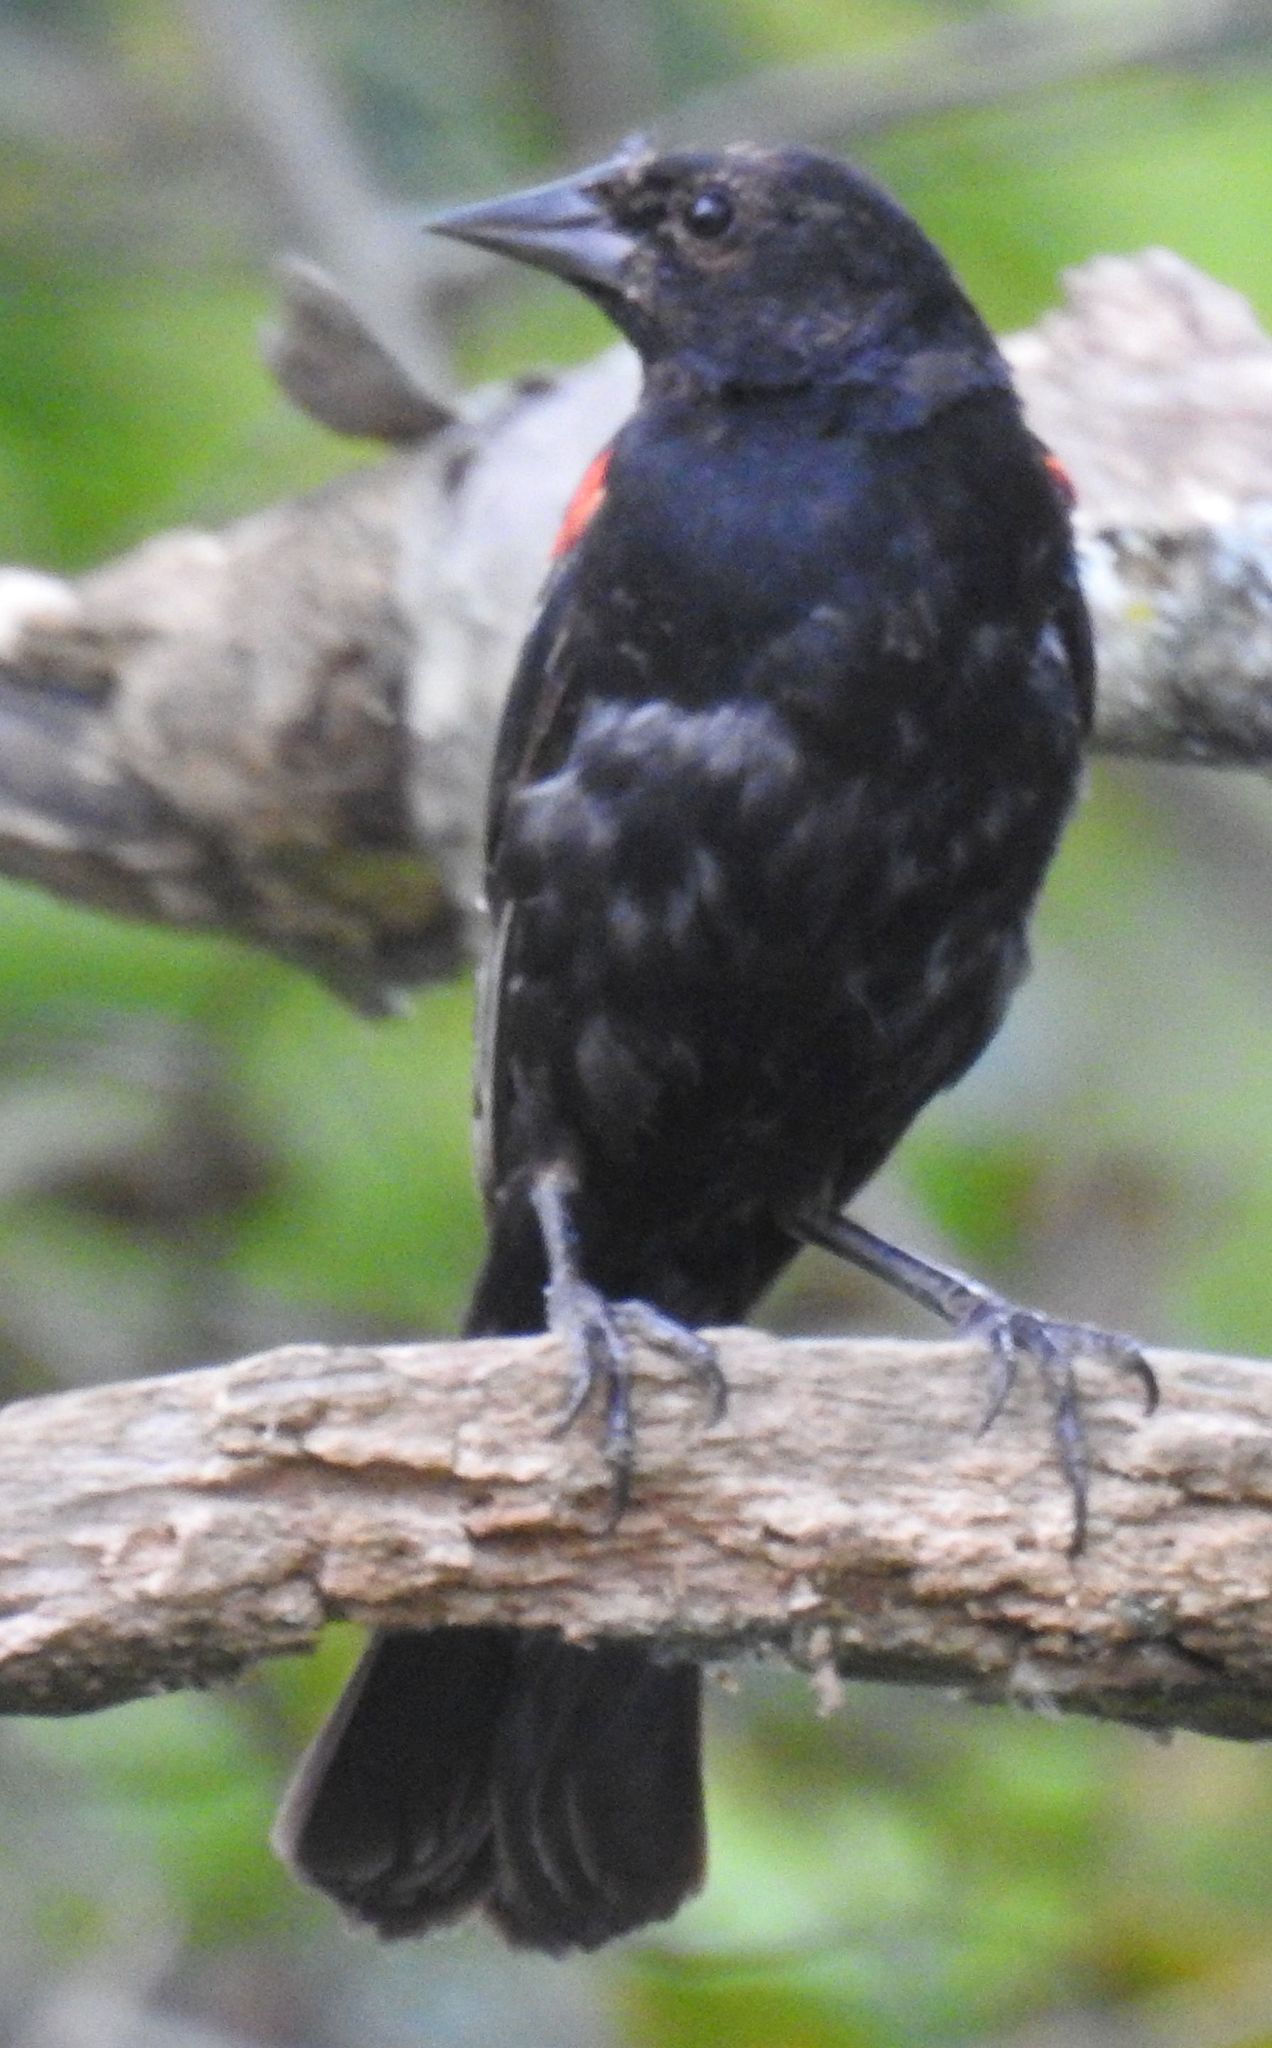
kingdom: Animalia
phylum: Chordata
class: Aves
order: Passeriformes
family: Icteridae
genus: Agelaius
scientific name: Agelaius phoeniceus
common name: Red-winged blackbird
